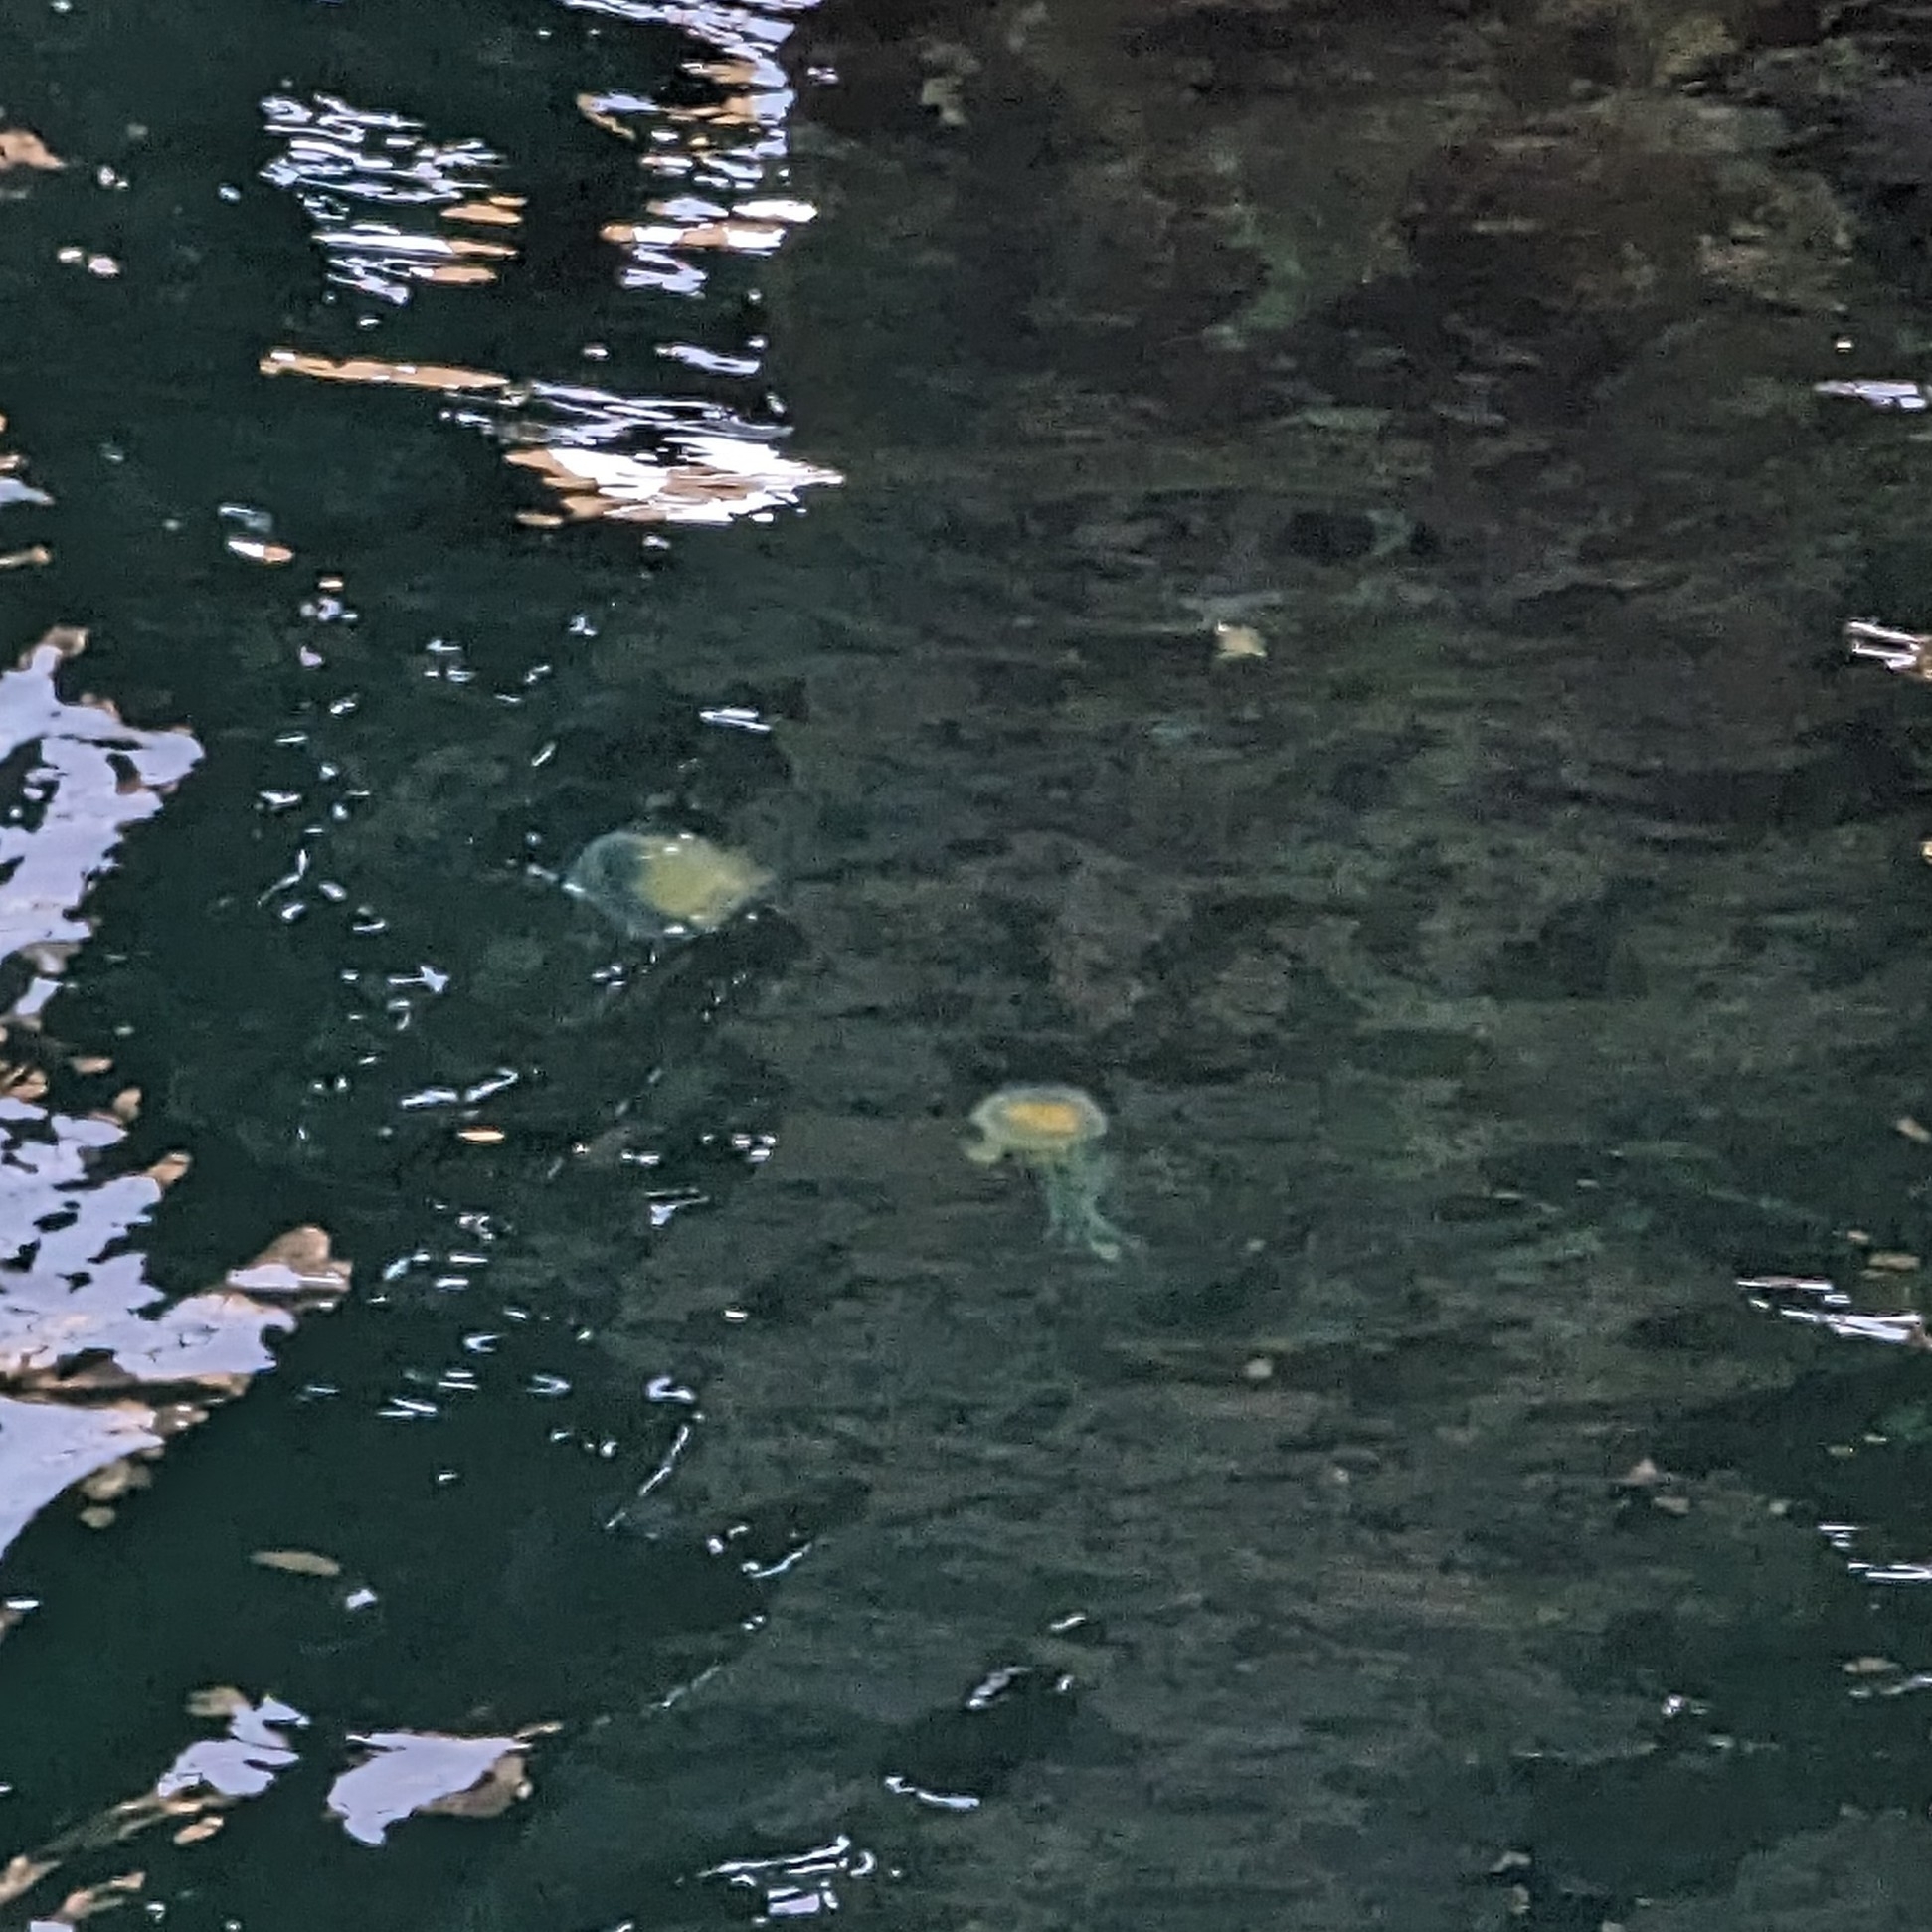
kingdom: Animalia
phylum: Cnidaria
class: Scyphozoa
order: Semaeostomeae
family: Phacellophoridae
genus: Phacellophora
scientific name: Phacellophora camtschatica
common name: Fried-egg jellyfish
